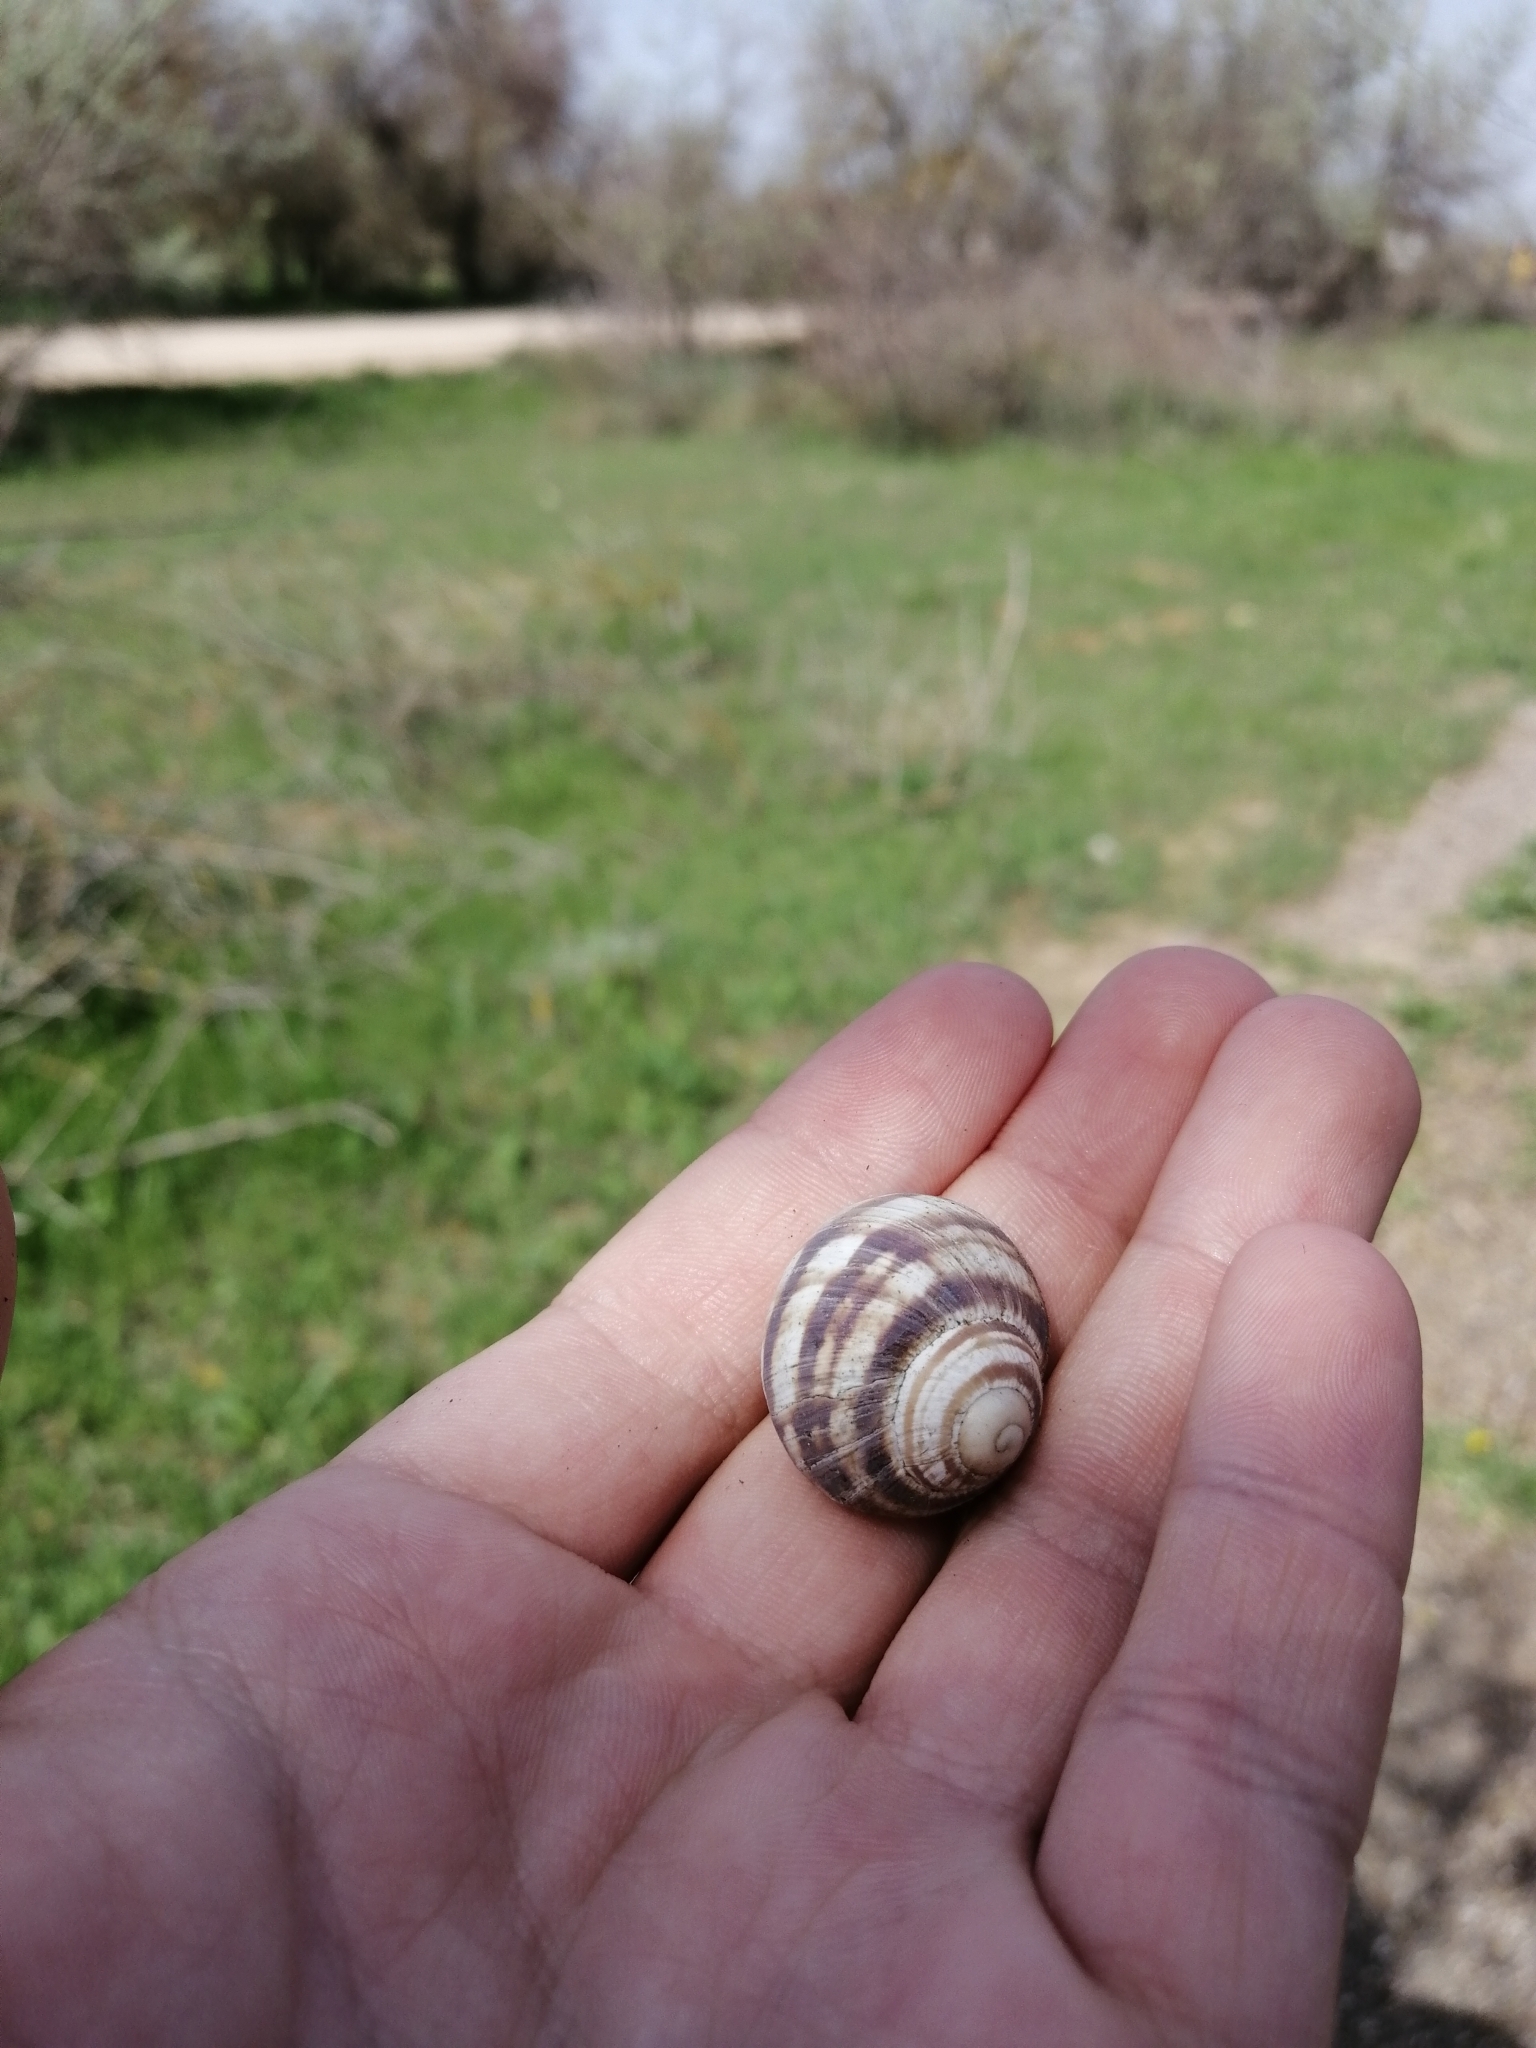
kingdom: Animalia
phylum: Mollusca
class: Gastropoda
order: Stylommatophora
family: Helicidae
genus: Helix
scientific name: Helix albescens
